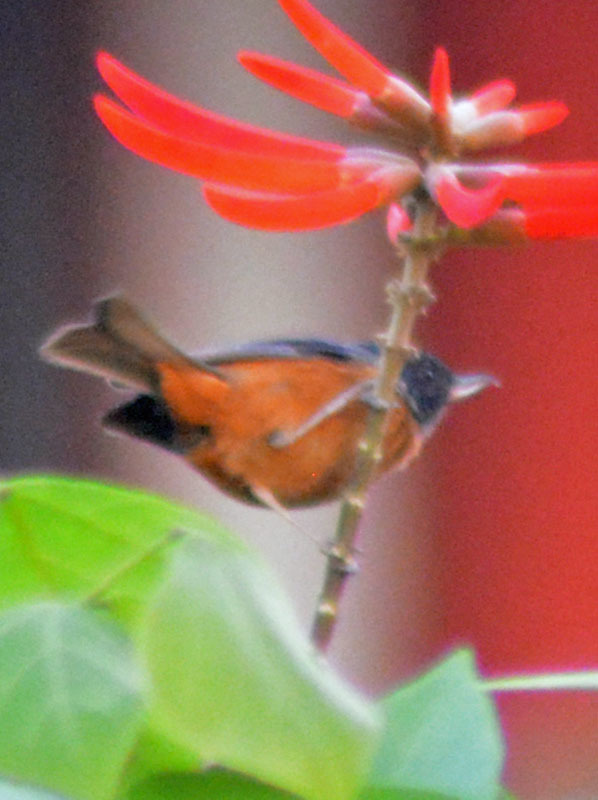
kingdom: Animalia
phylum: Chordata
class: Aves
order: Passeriformes
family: Thraupidae
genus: Diglossa
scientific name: Diglossa baritula
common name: Cinnamon-bellied flowerpiercer
